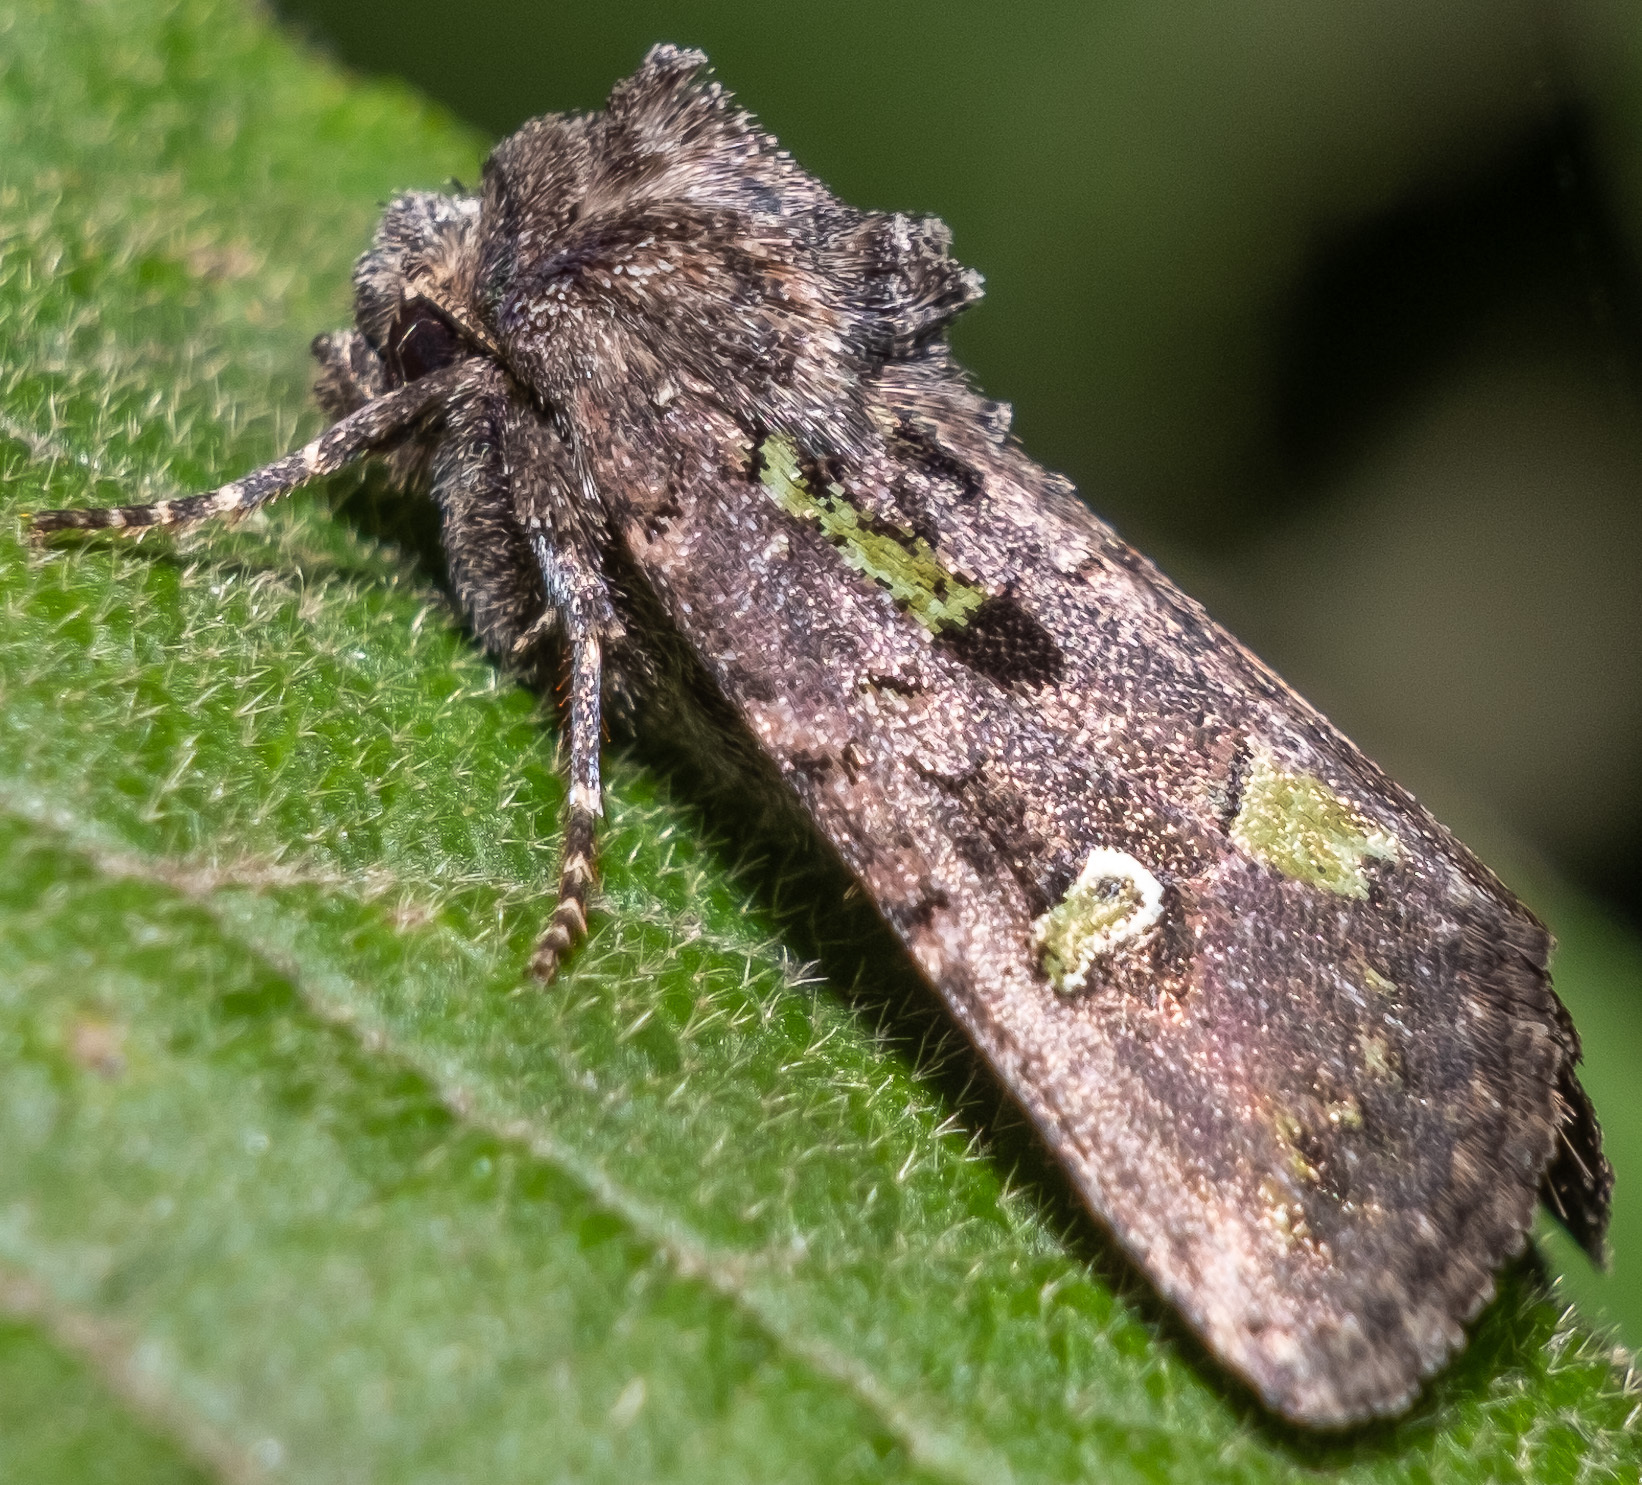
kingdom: Animalia
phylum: Arthropoda
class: Insecta
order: Lepidoptera
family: Noctuidae
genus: Lacinipolia
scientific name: Lacinipolia renigera
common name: Kidney-spotted minor
